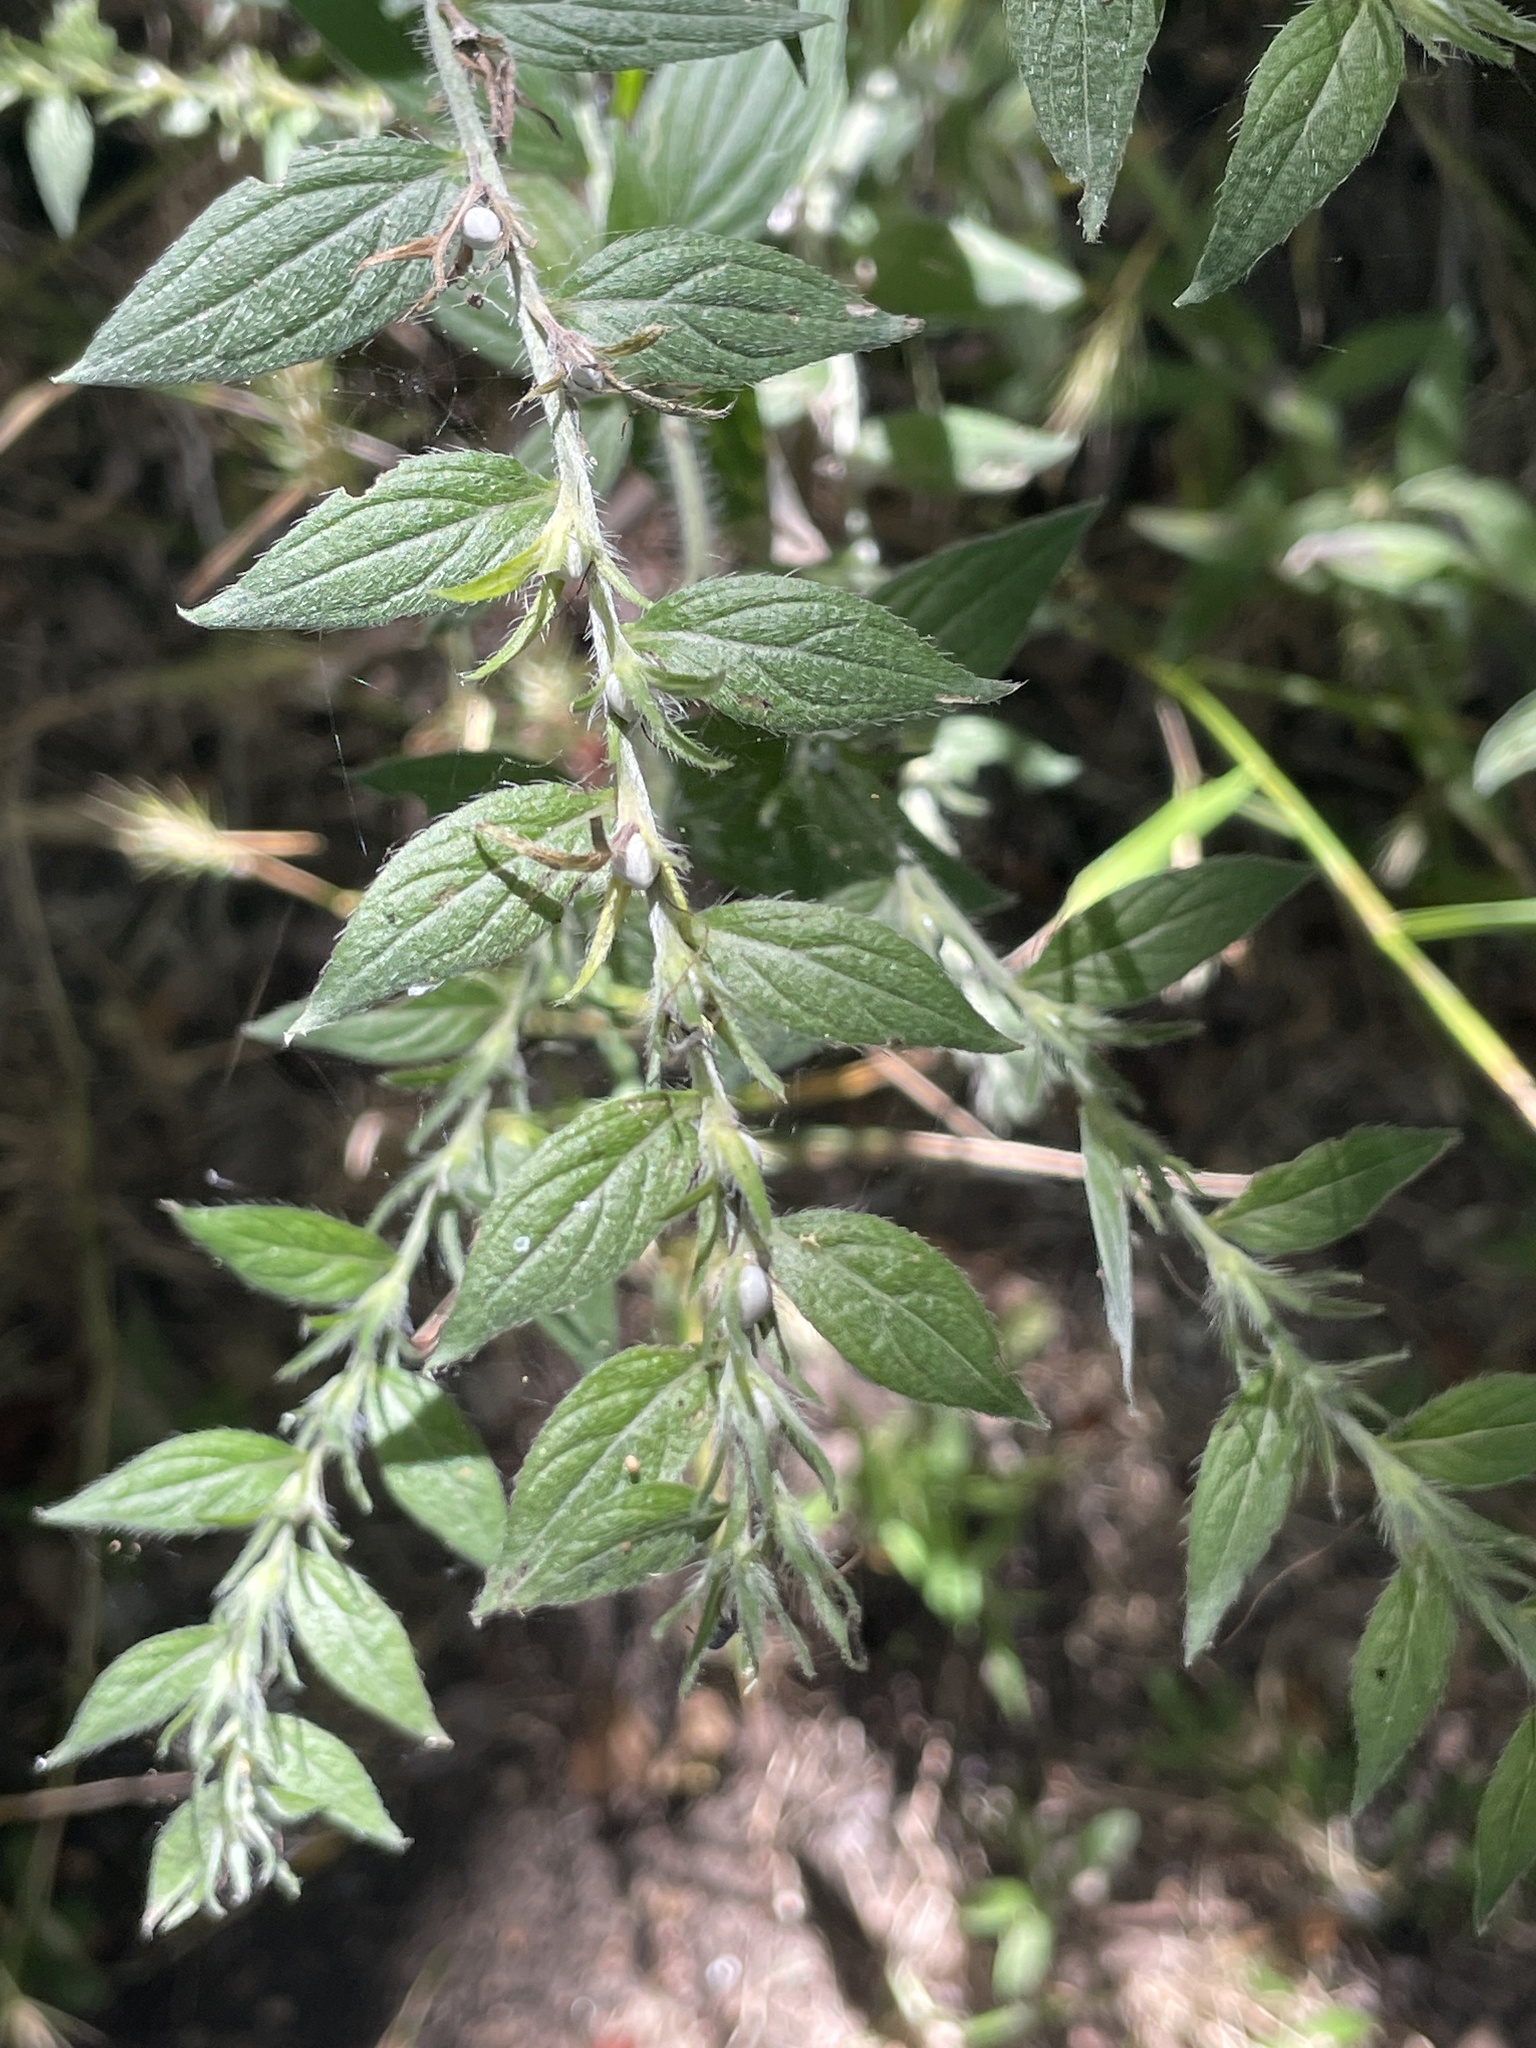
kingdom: Plantae
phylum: Tracheophyta
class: Magnoliopsida
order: Boraginales
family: Boraginaceae
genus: Lithospermum
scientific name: Lithospermum caroliniense
